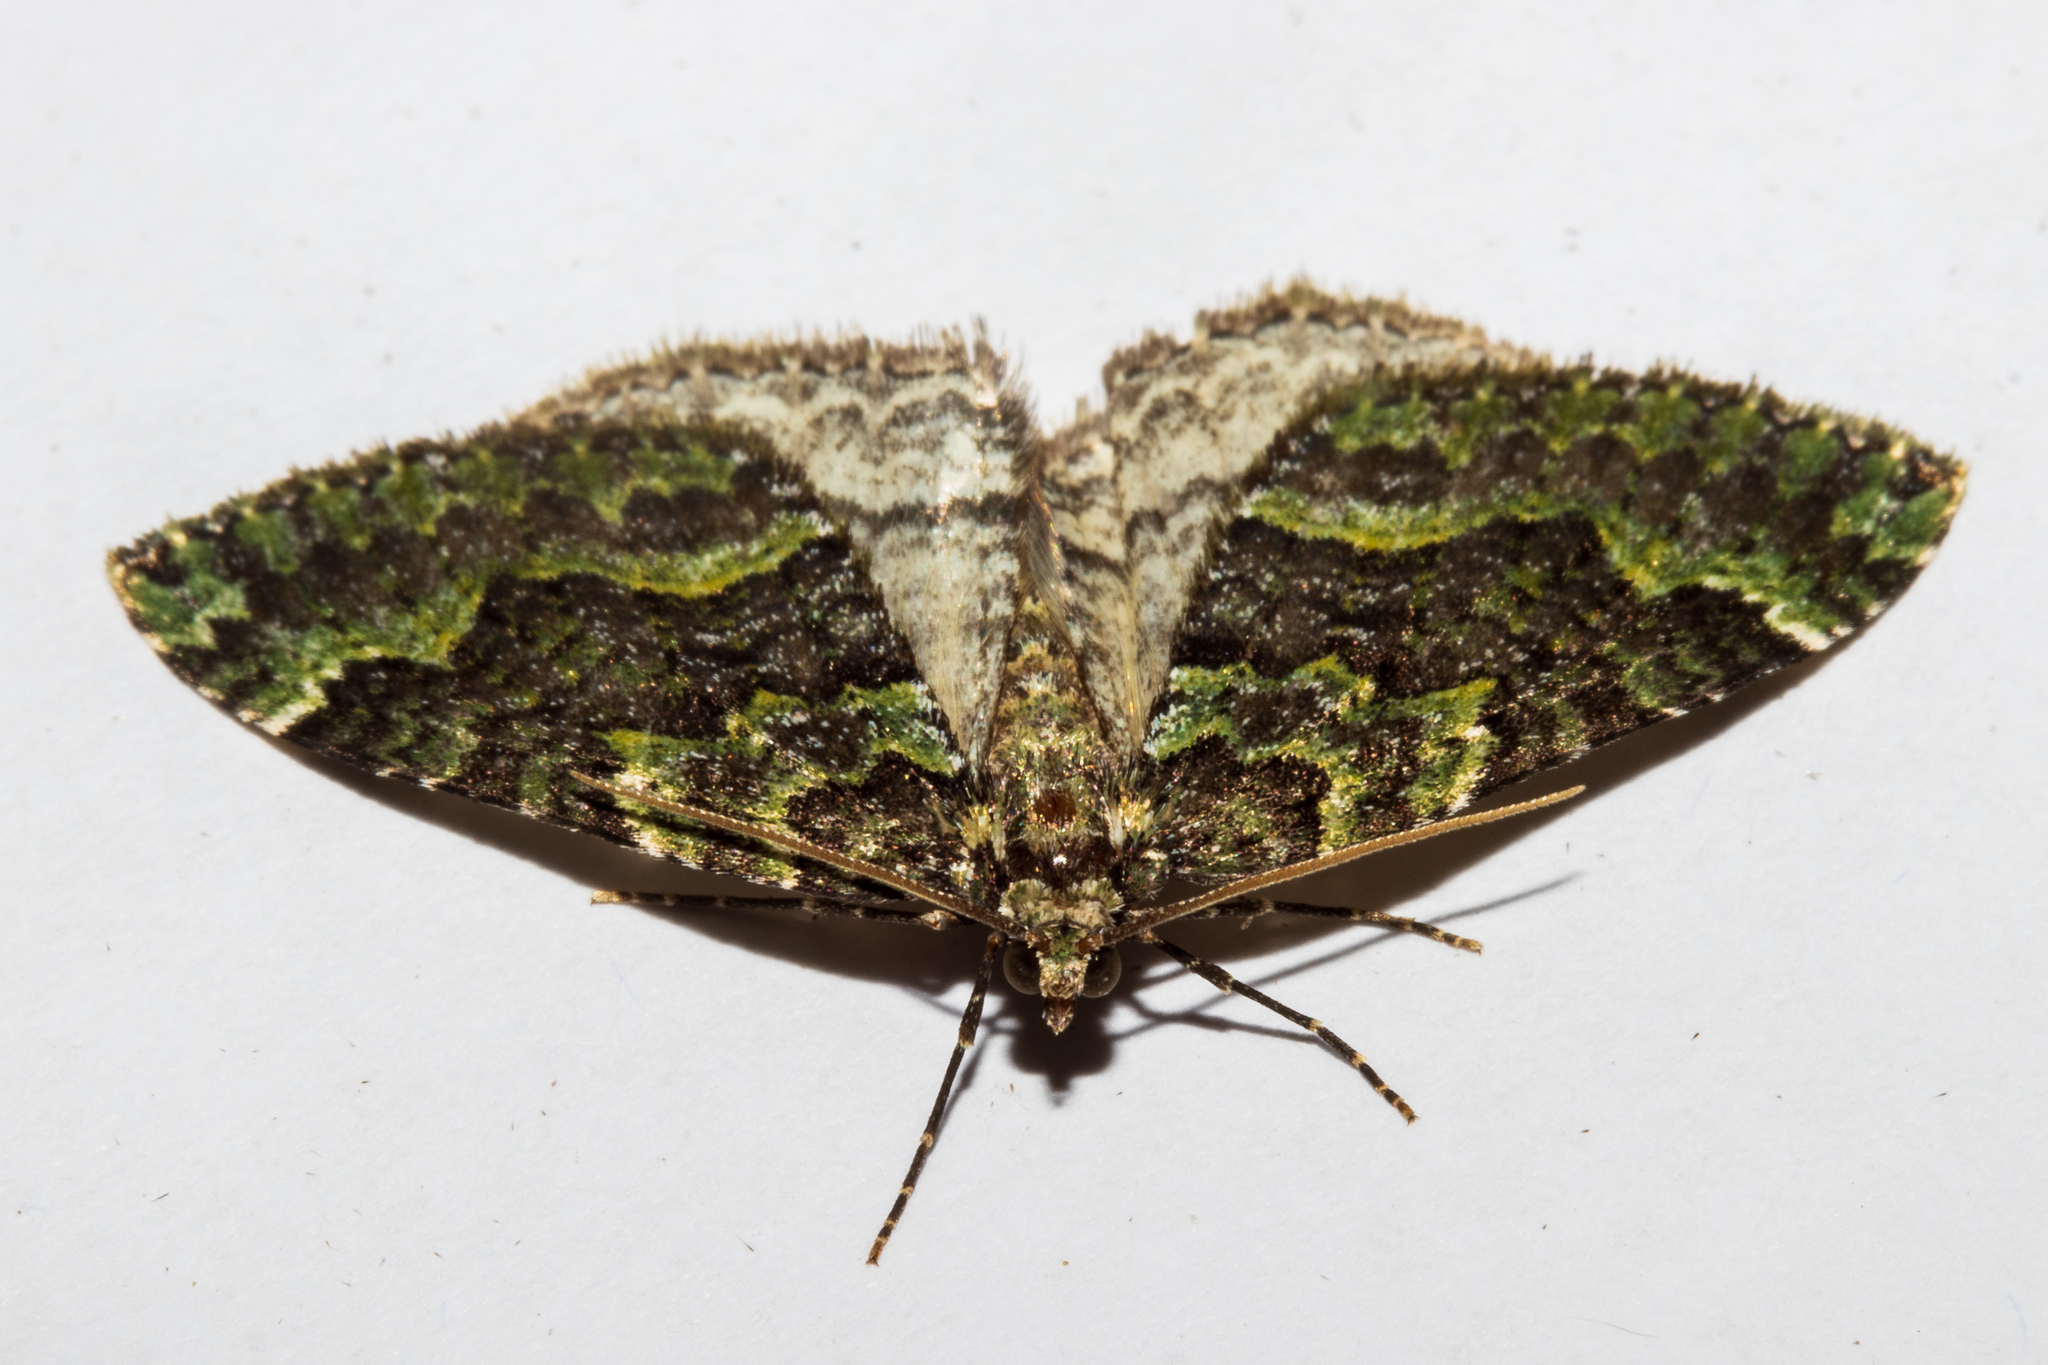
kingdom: Animalia
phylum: Arthropoda
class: Insecta
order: Lepidoptera
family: Geometridae
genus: Austrocidaria
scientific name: Austrocidaria callichlora
